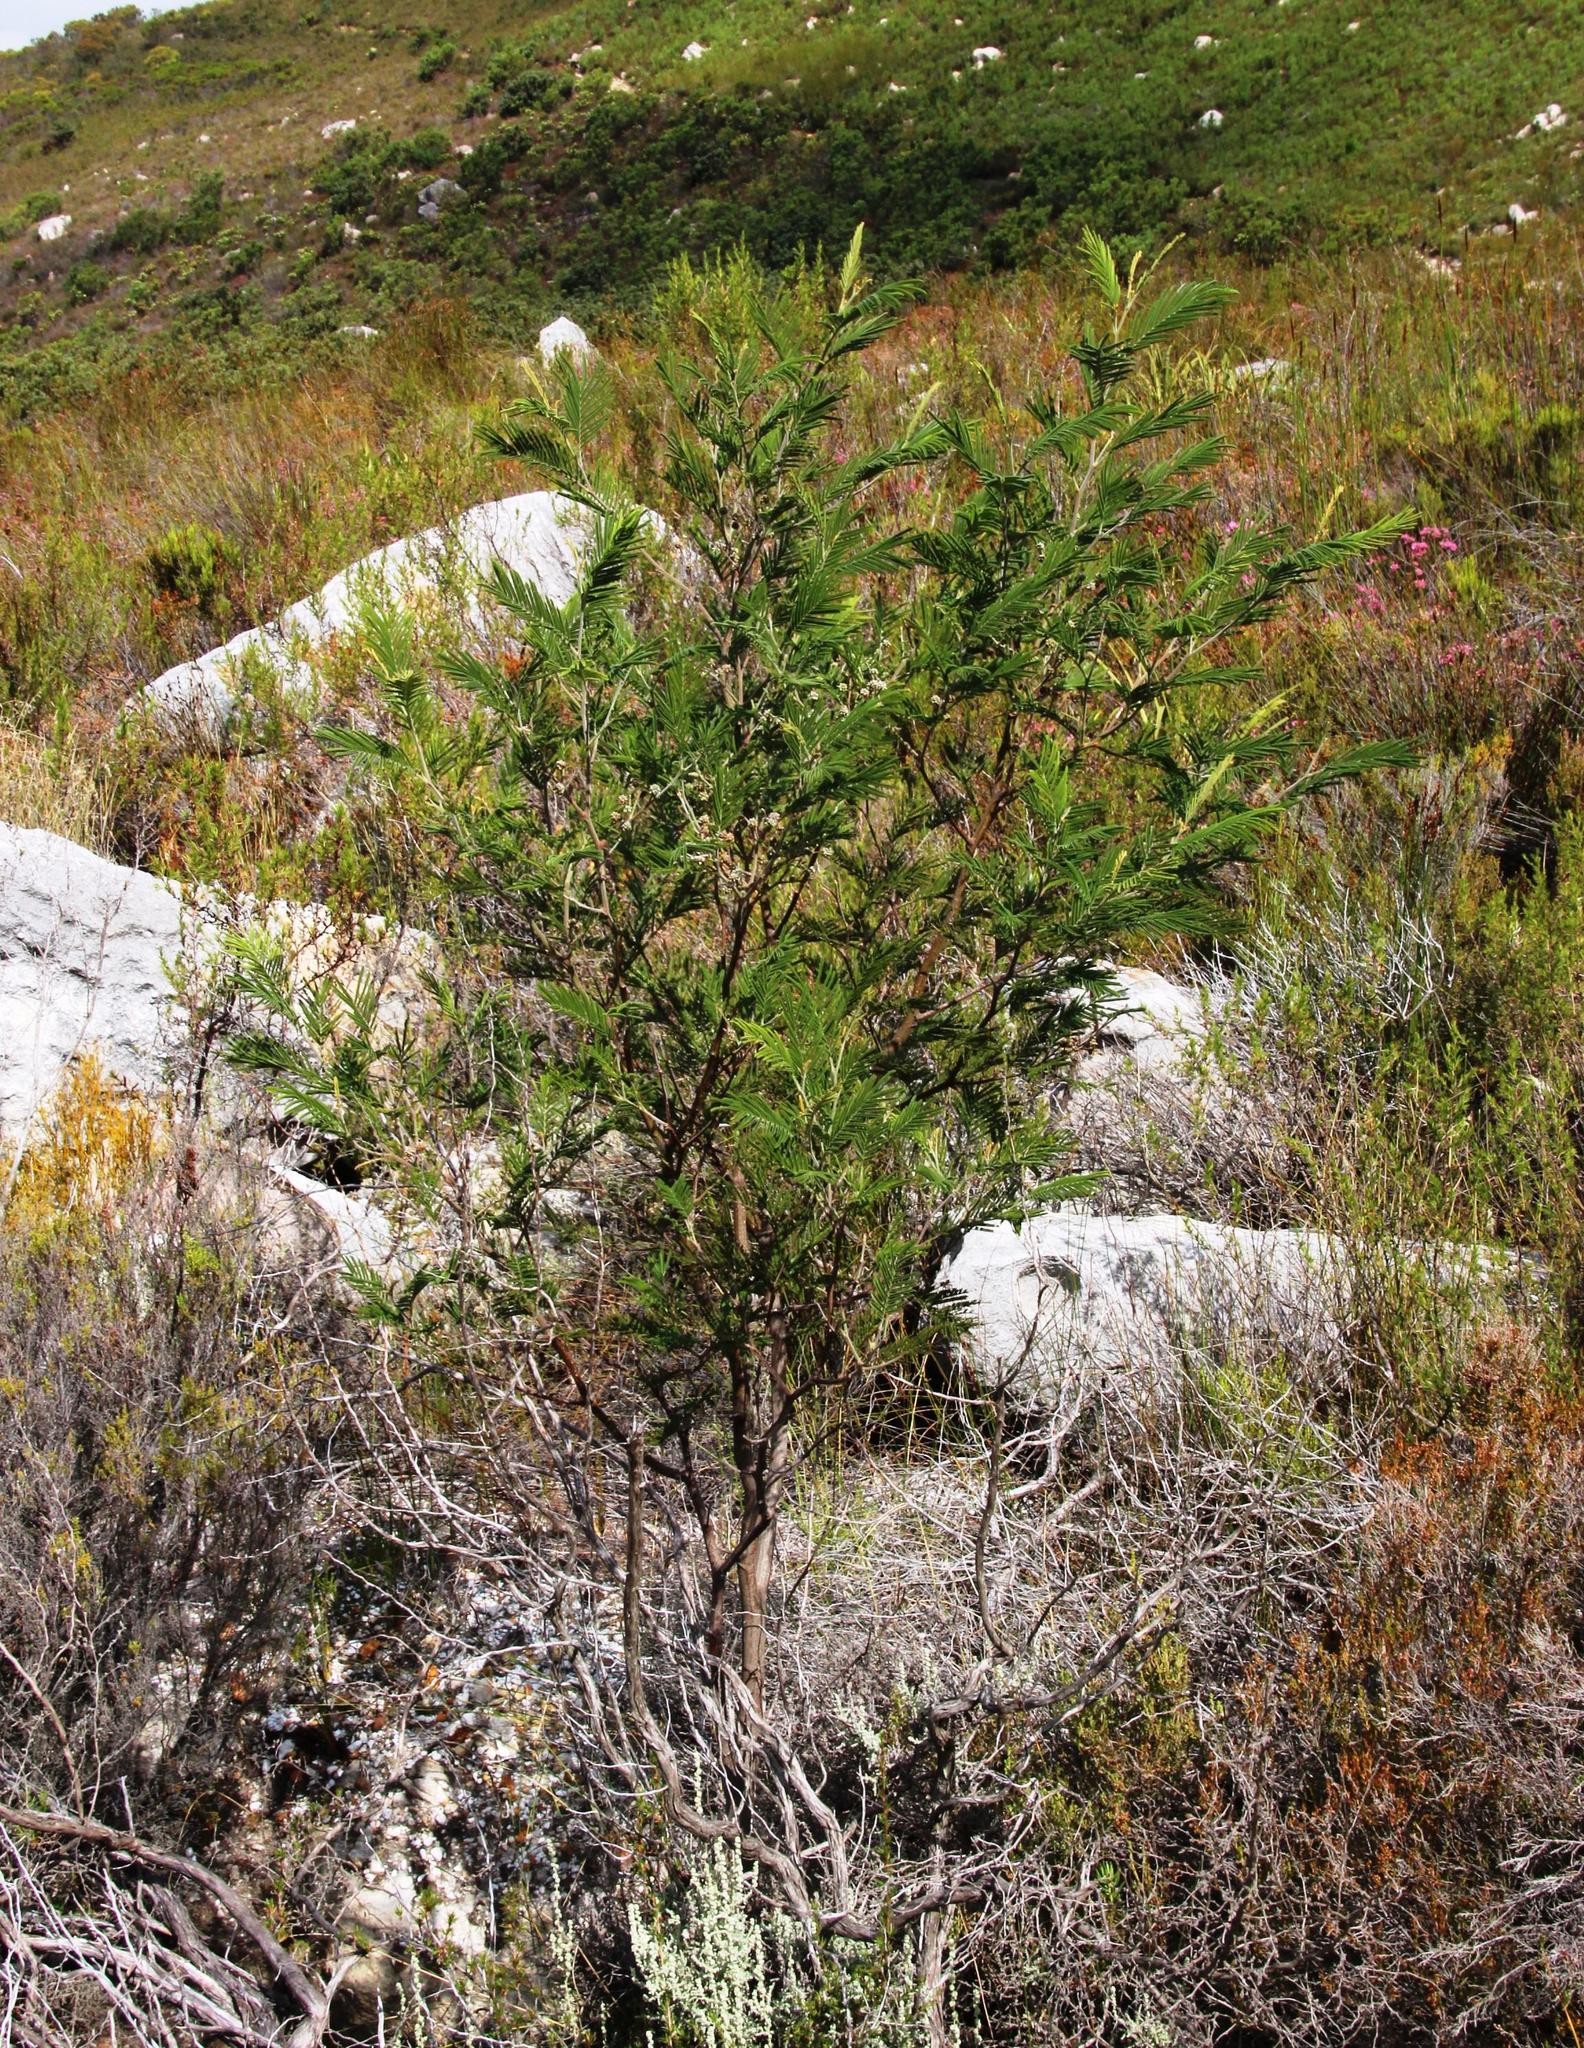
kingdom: Plantae
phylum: Tracheophyta
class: Magnoliopsida
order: Fabales
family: Fabaceae
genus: Acacia
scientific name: Acacia mearnsii
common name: Black wattle
